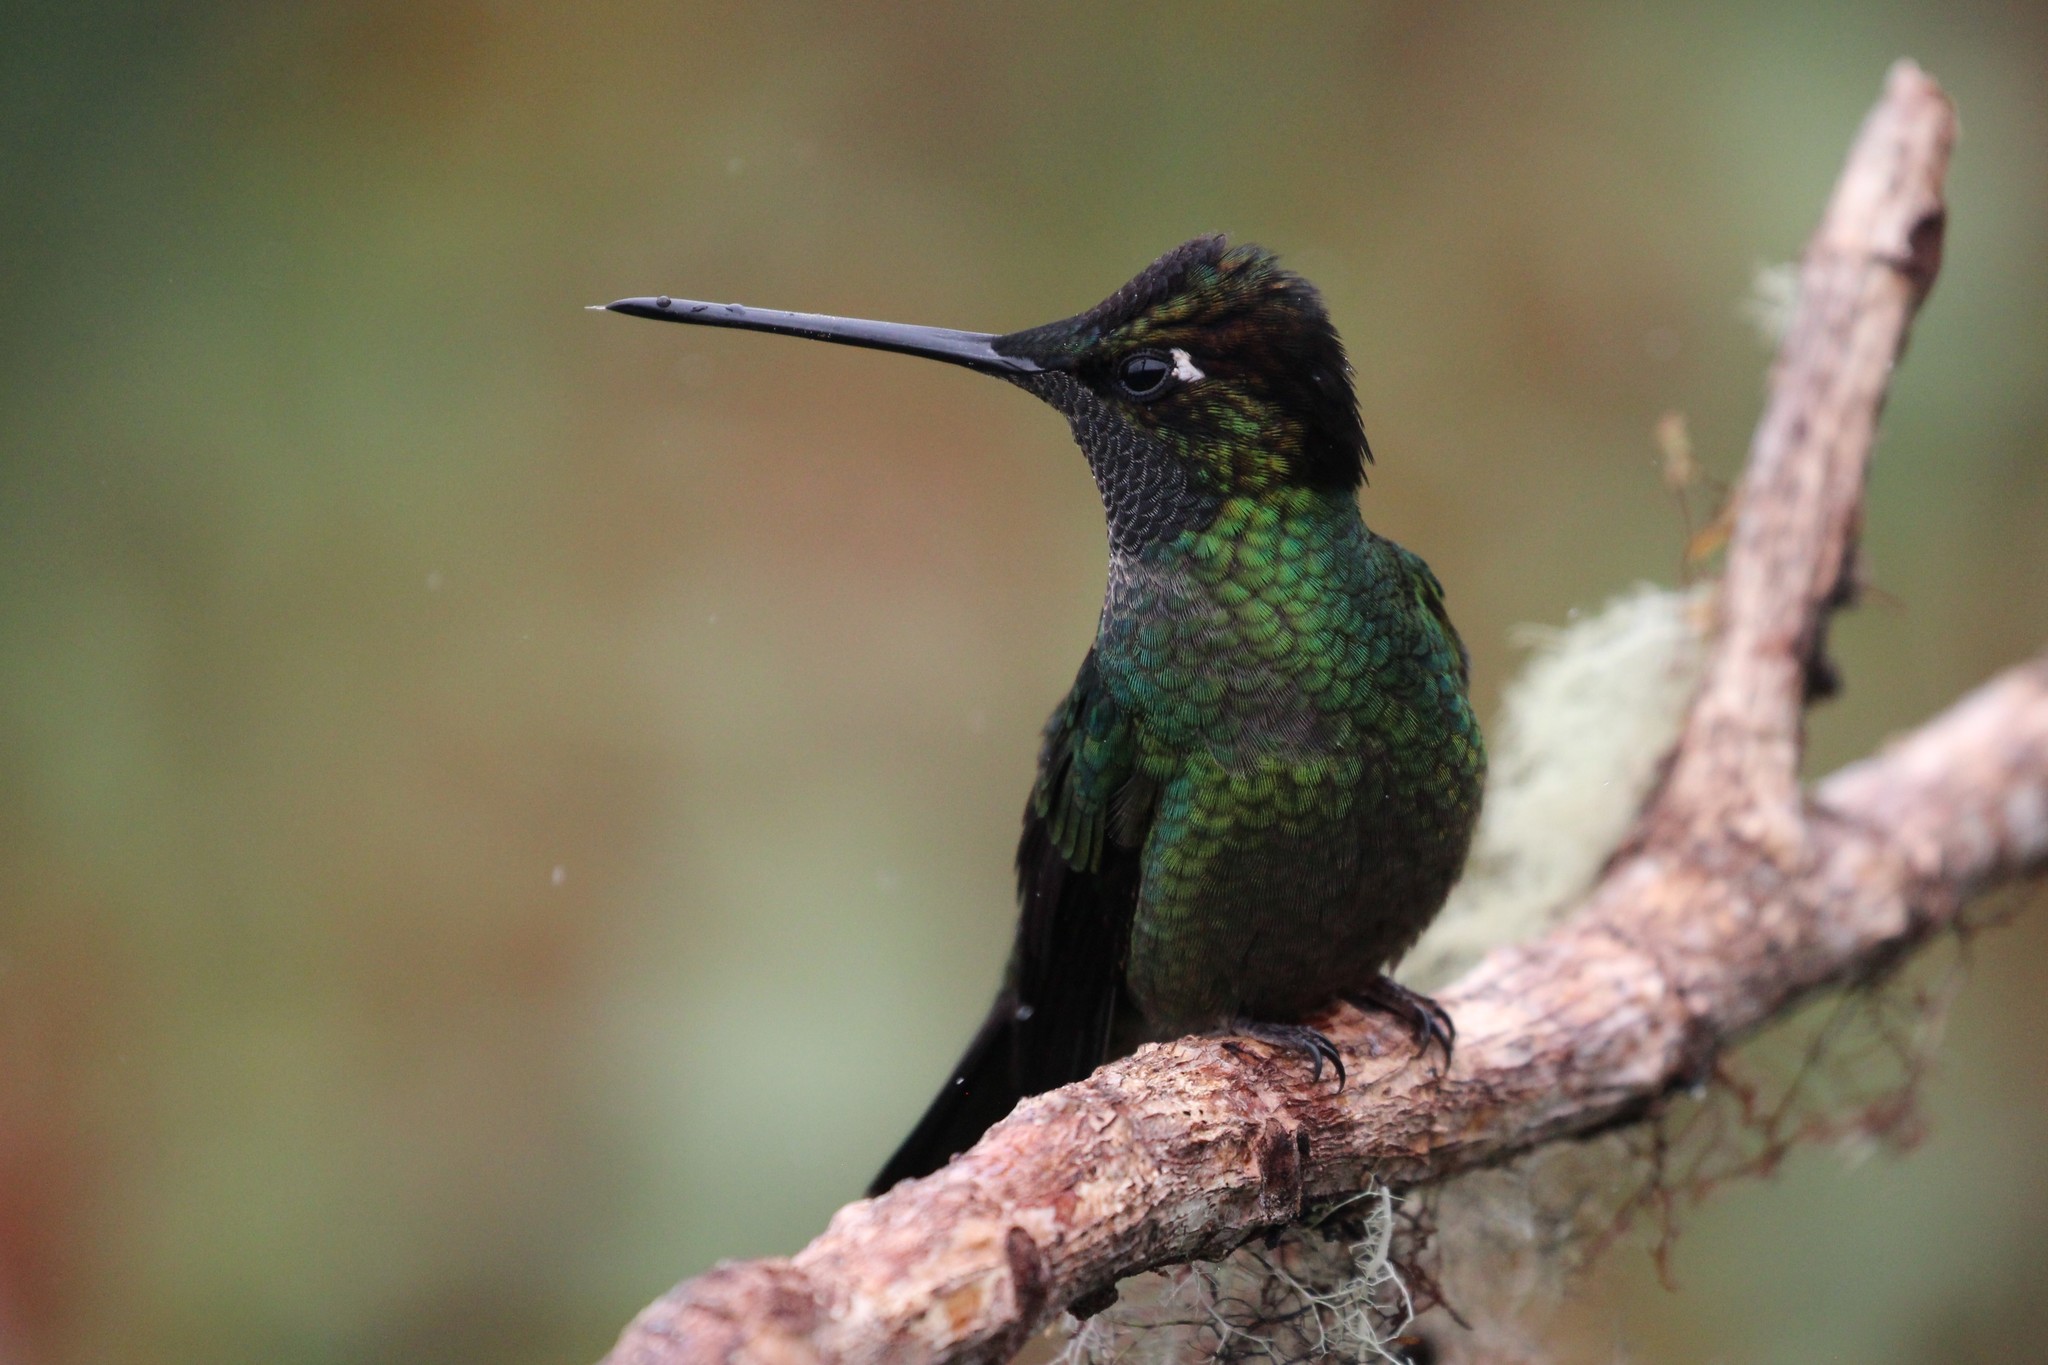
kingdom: Animalia
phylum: Chordata
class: Aves
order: Apodiformes
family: Trochilidae
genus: Eugenes
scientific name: Eugenes spectabilis
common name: Talamanca hummingbird
